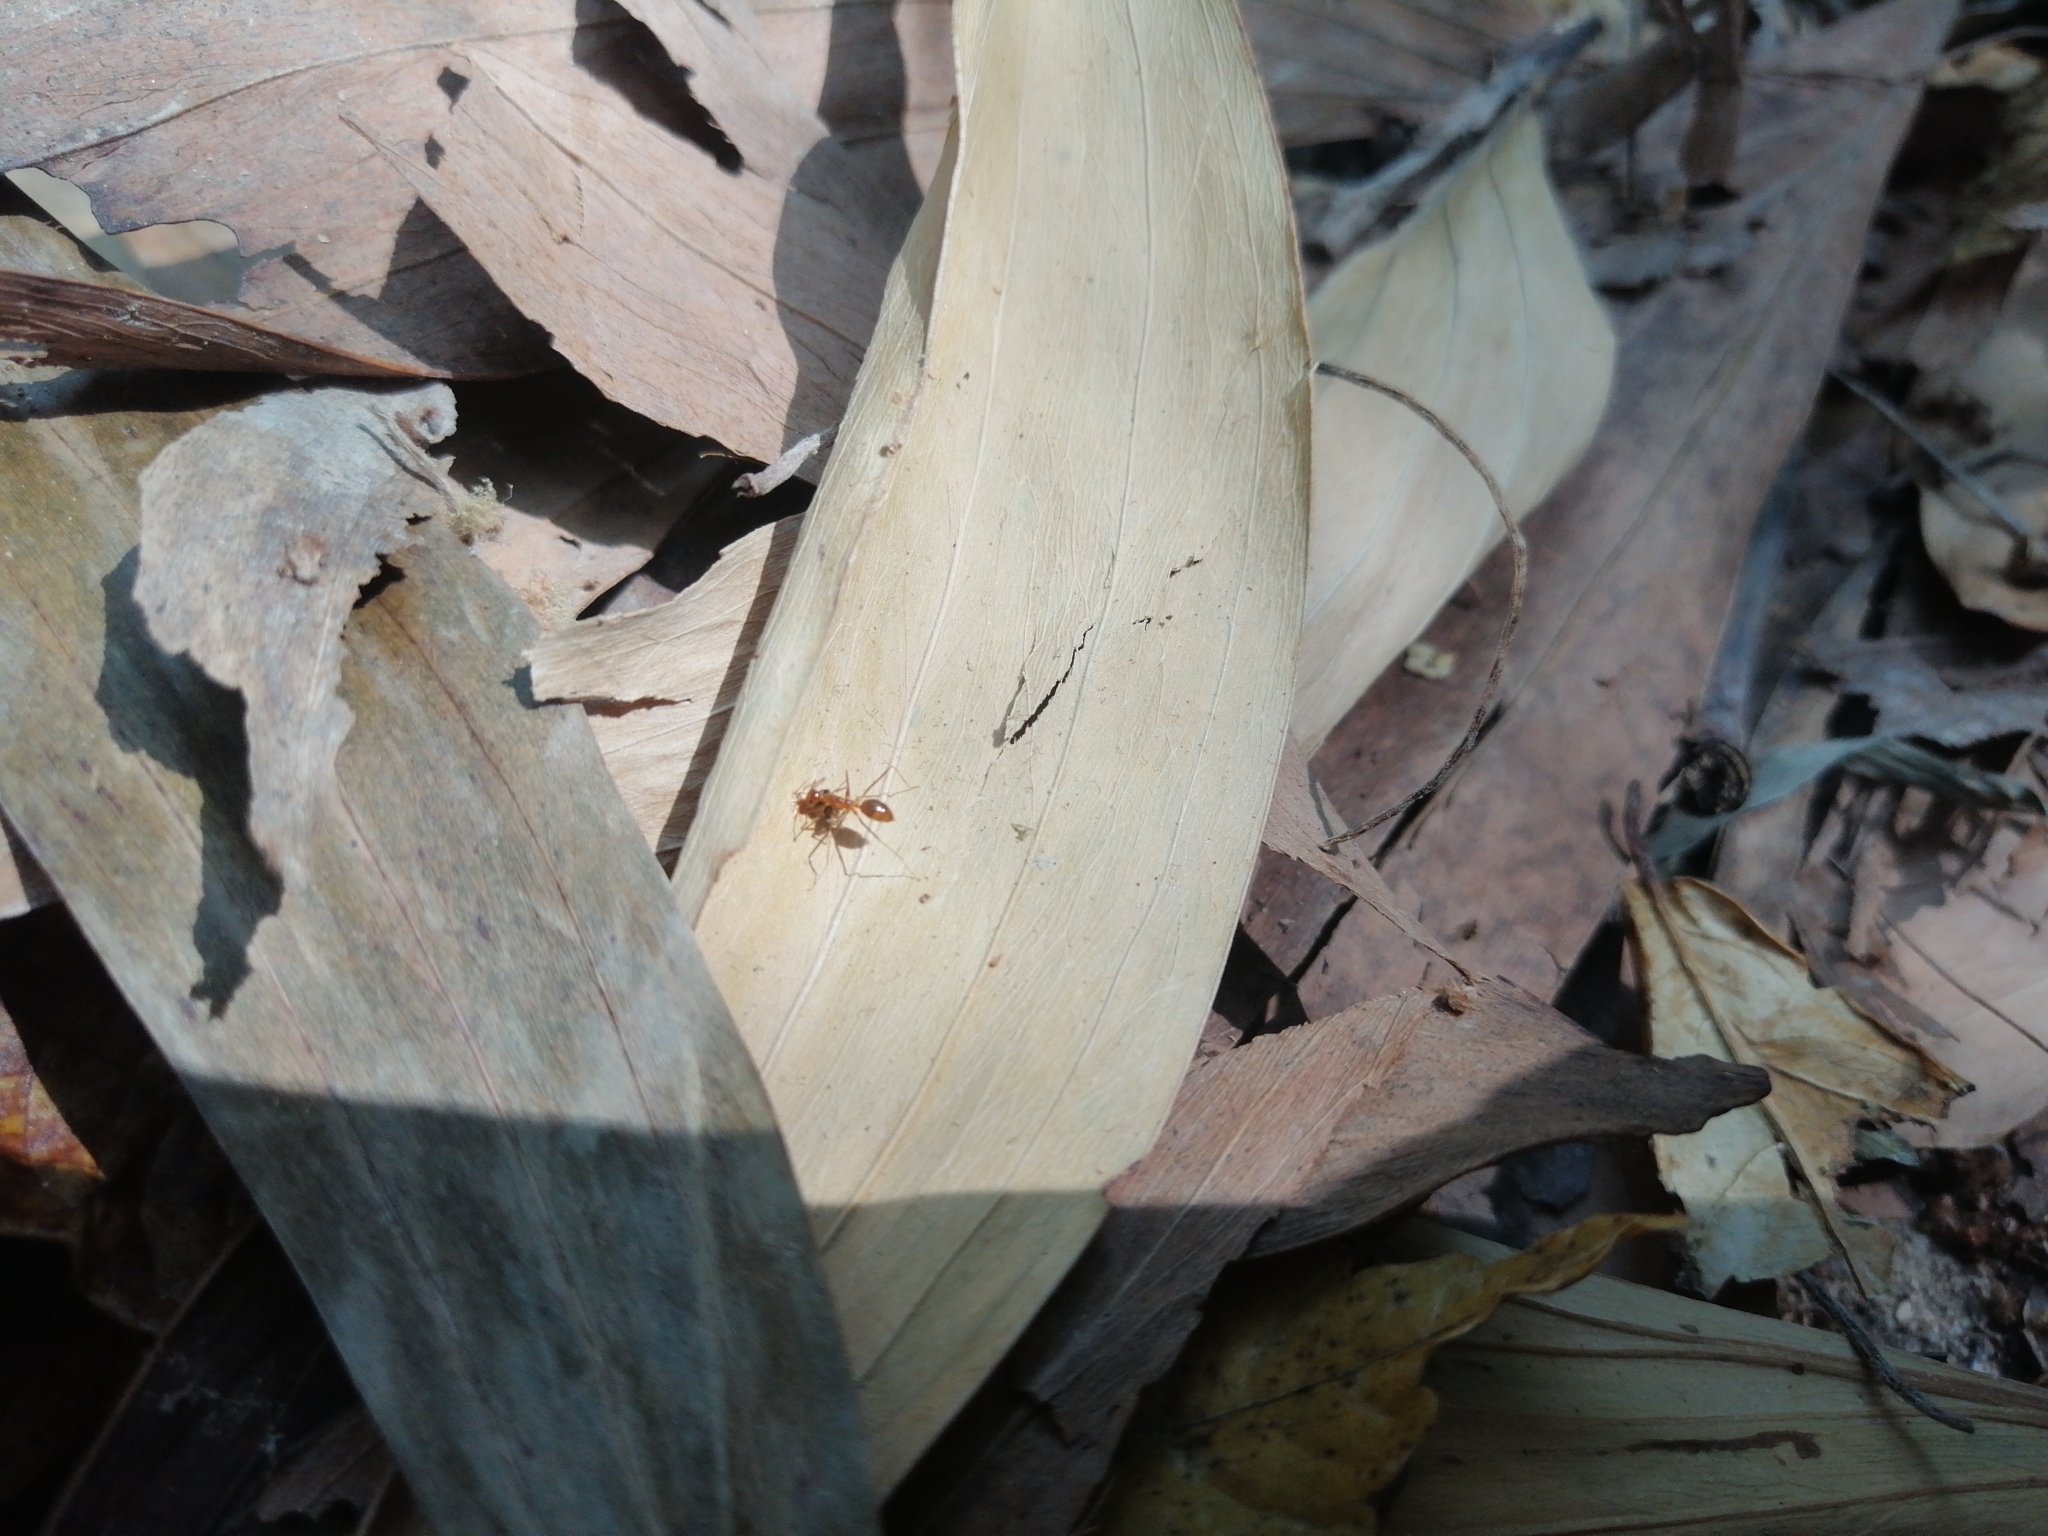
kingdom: Animalia
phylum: Arthropoda
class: Insecta
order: Hymenoptera
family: Formicidae
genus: Anoplolepis
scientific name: Anoplolepis gracilipes
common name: Ant
